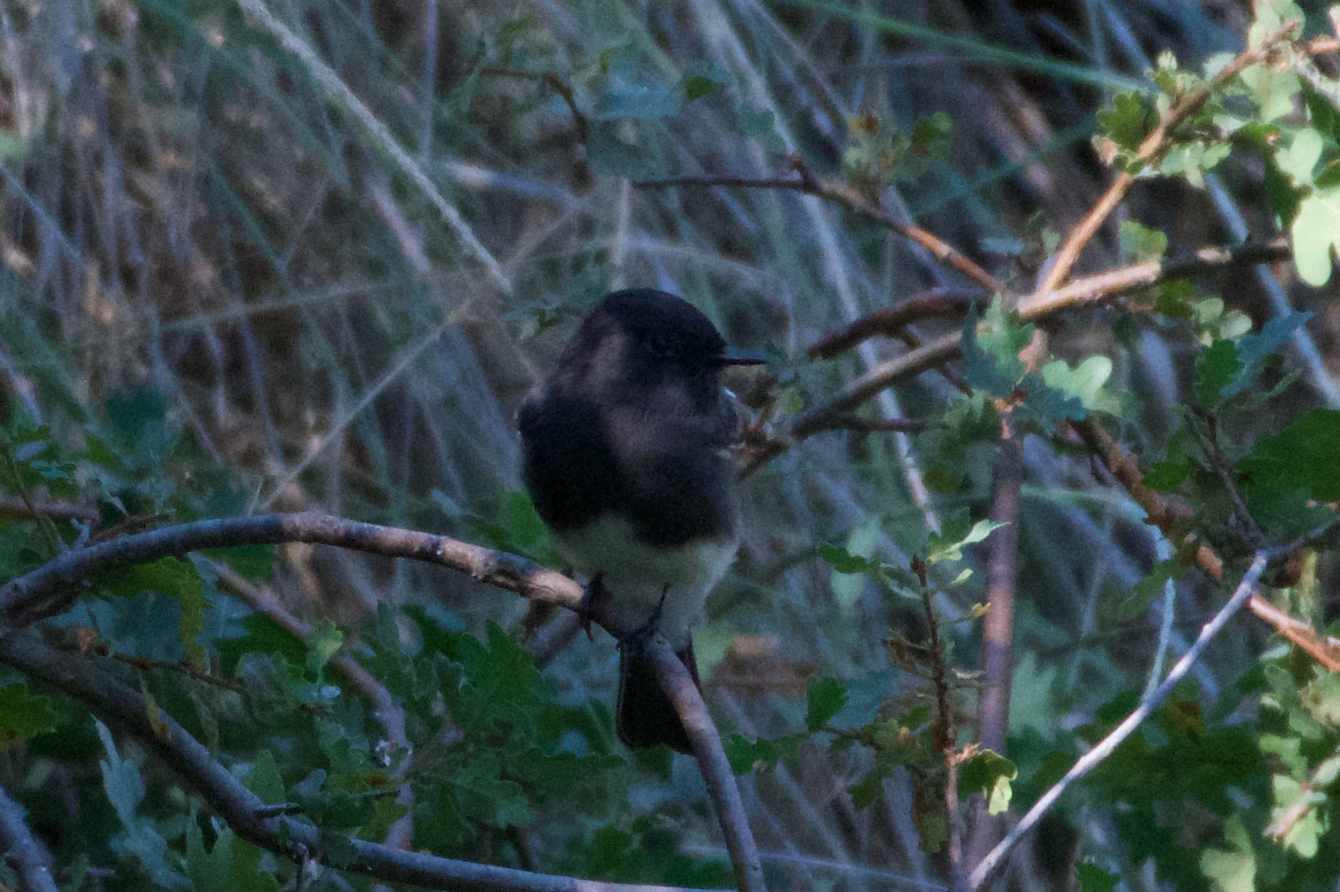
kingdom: Animalia
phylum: Chordata
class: Aves
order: Passeriformes
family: Tyrannidae
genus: Sayornis
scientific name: Sayornis nigricans
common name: Black phoebe
